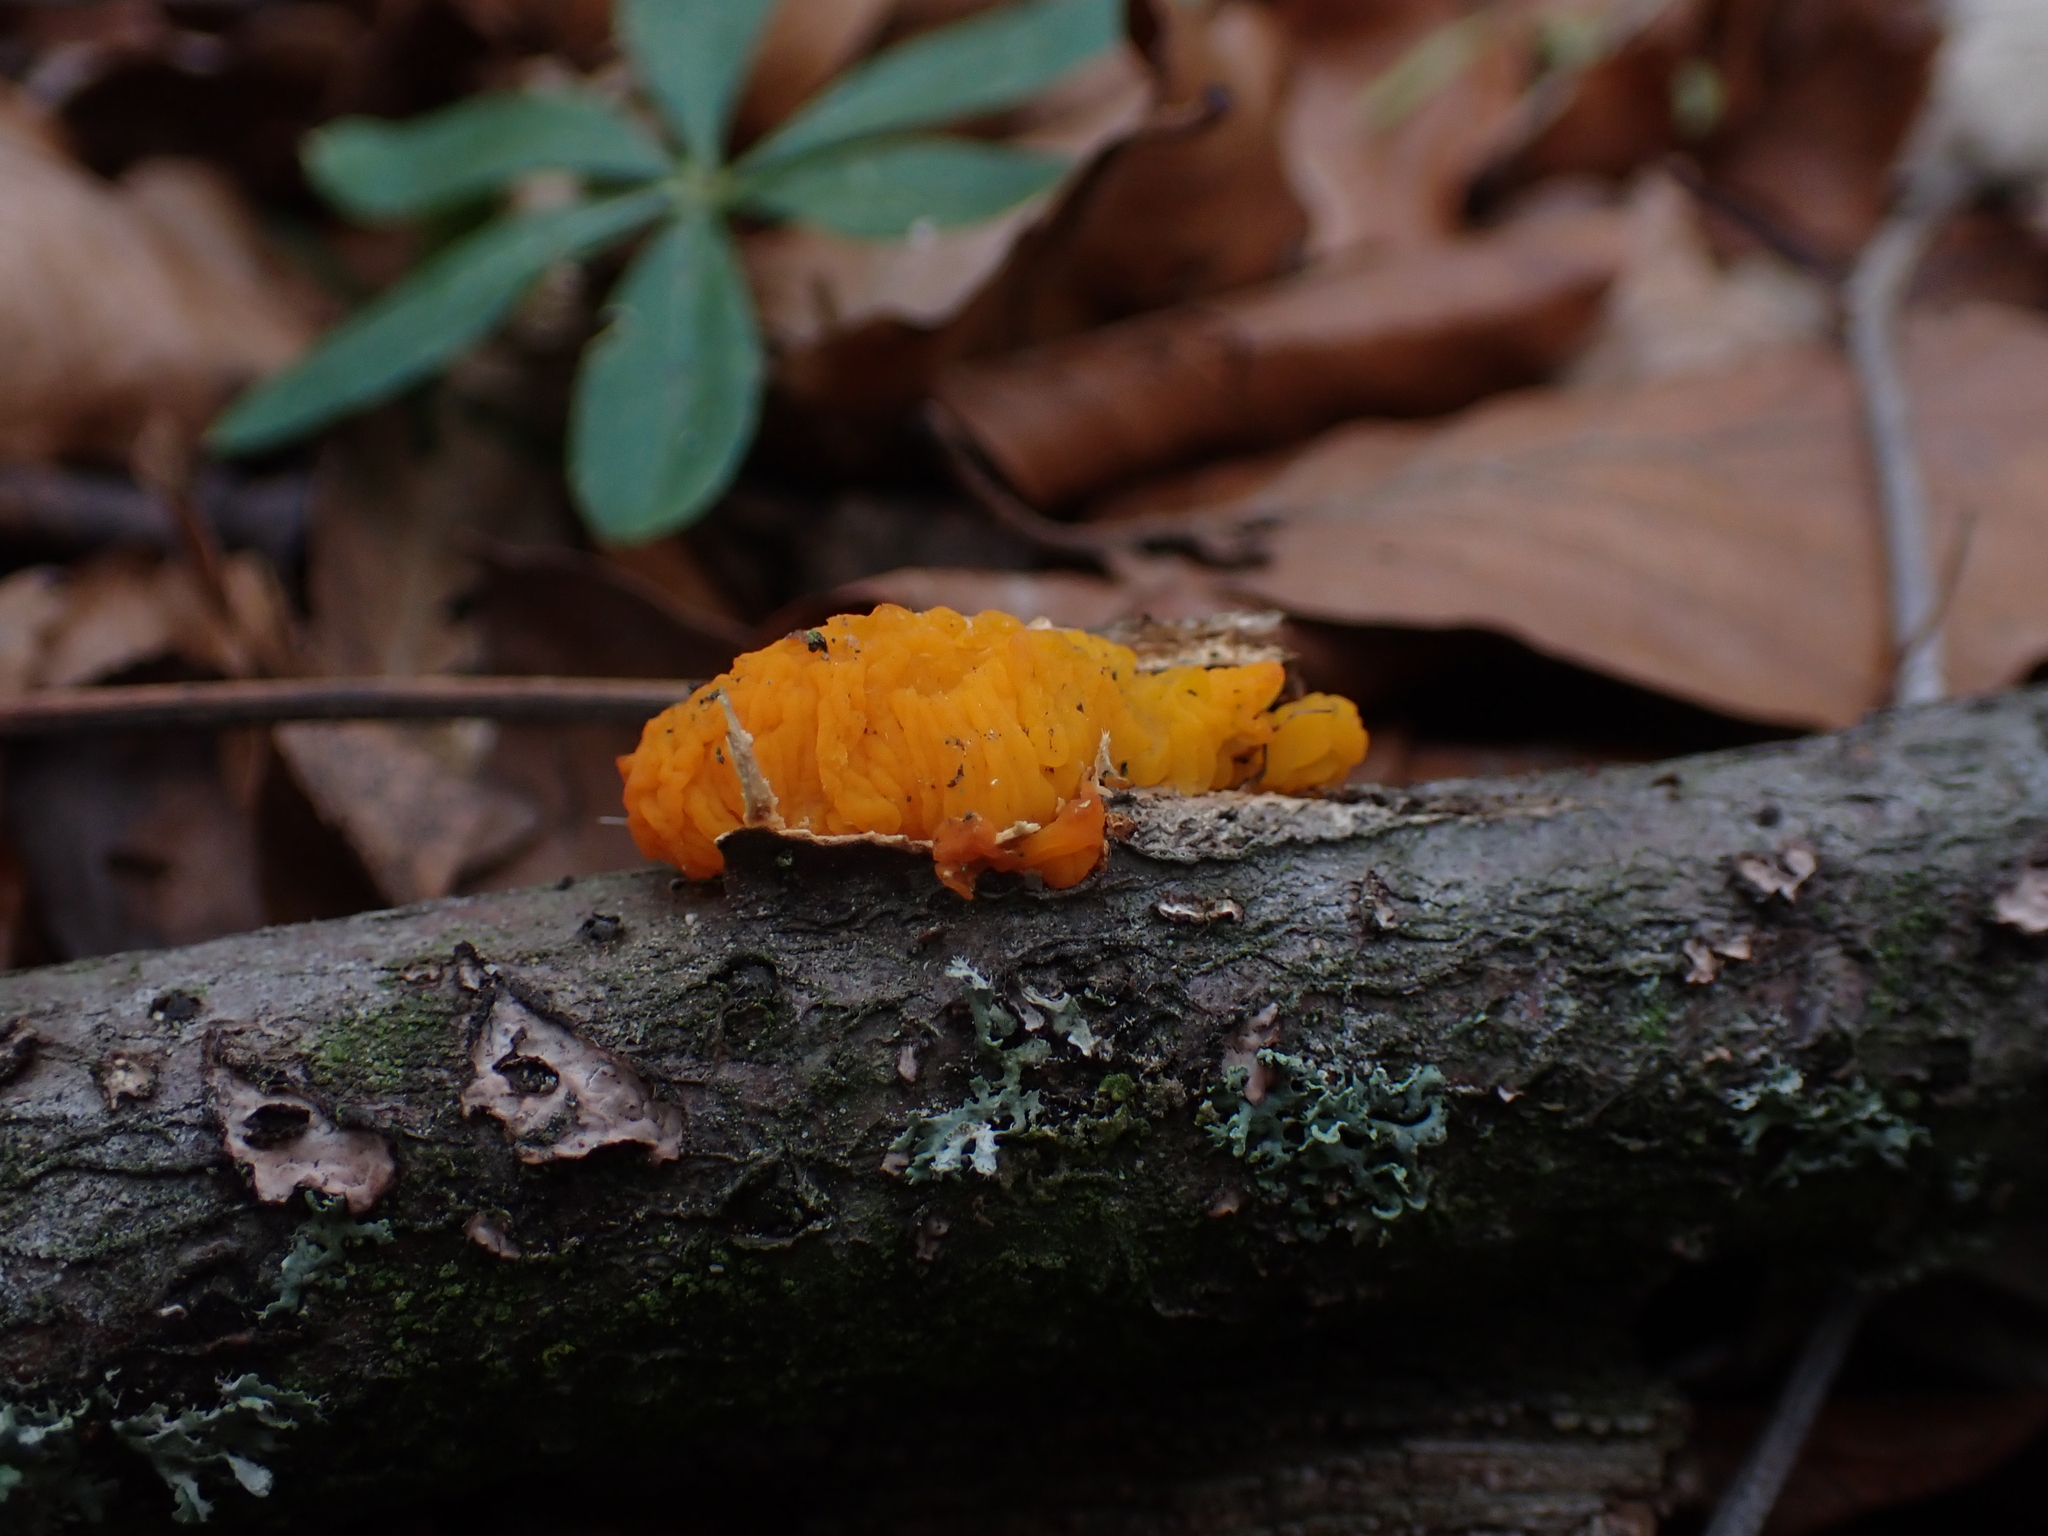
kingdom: Fungi
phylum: Basidiomycota
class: Tremellomycetes
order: Tremellales
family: Tremellaceae
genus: Tremella
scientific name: Tremella mesenterica
